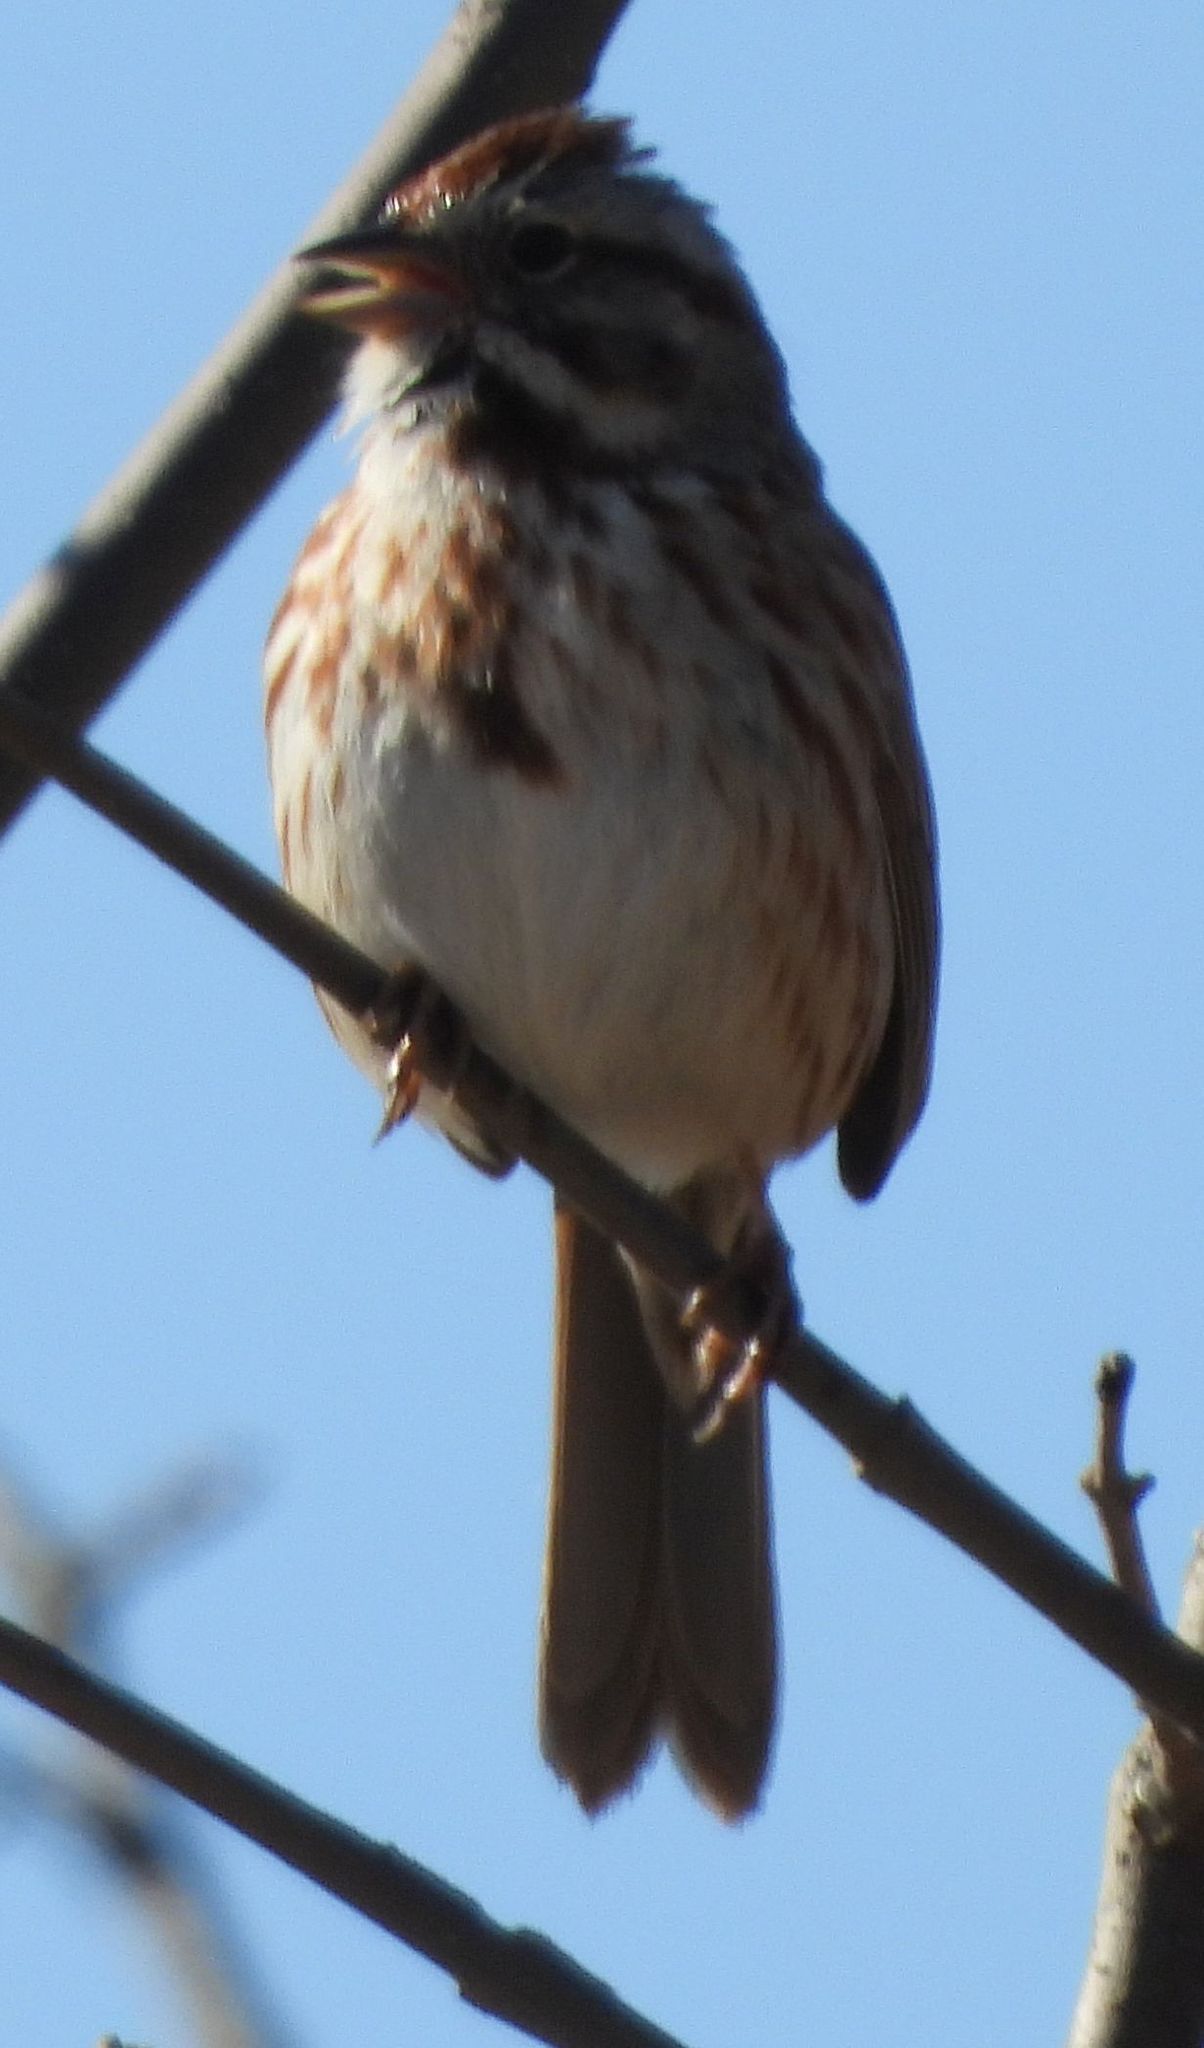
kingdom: Animalia
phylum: Chordata
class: Aves
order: Passeriformes
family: Passerellidae
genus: Melospiza
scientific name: Melospiza melodia
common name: Song sparrow
